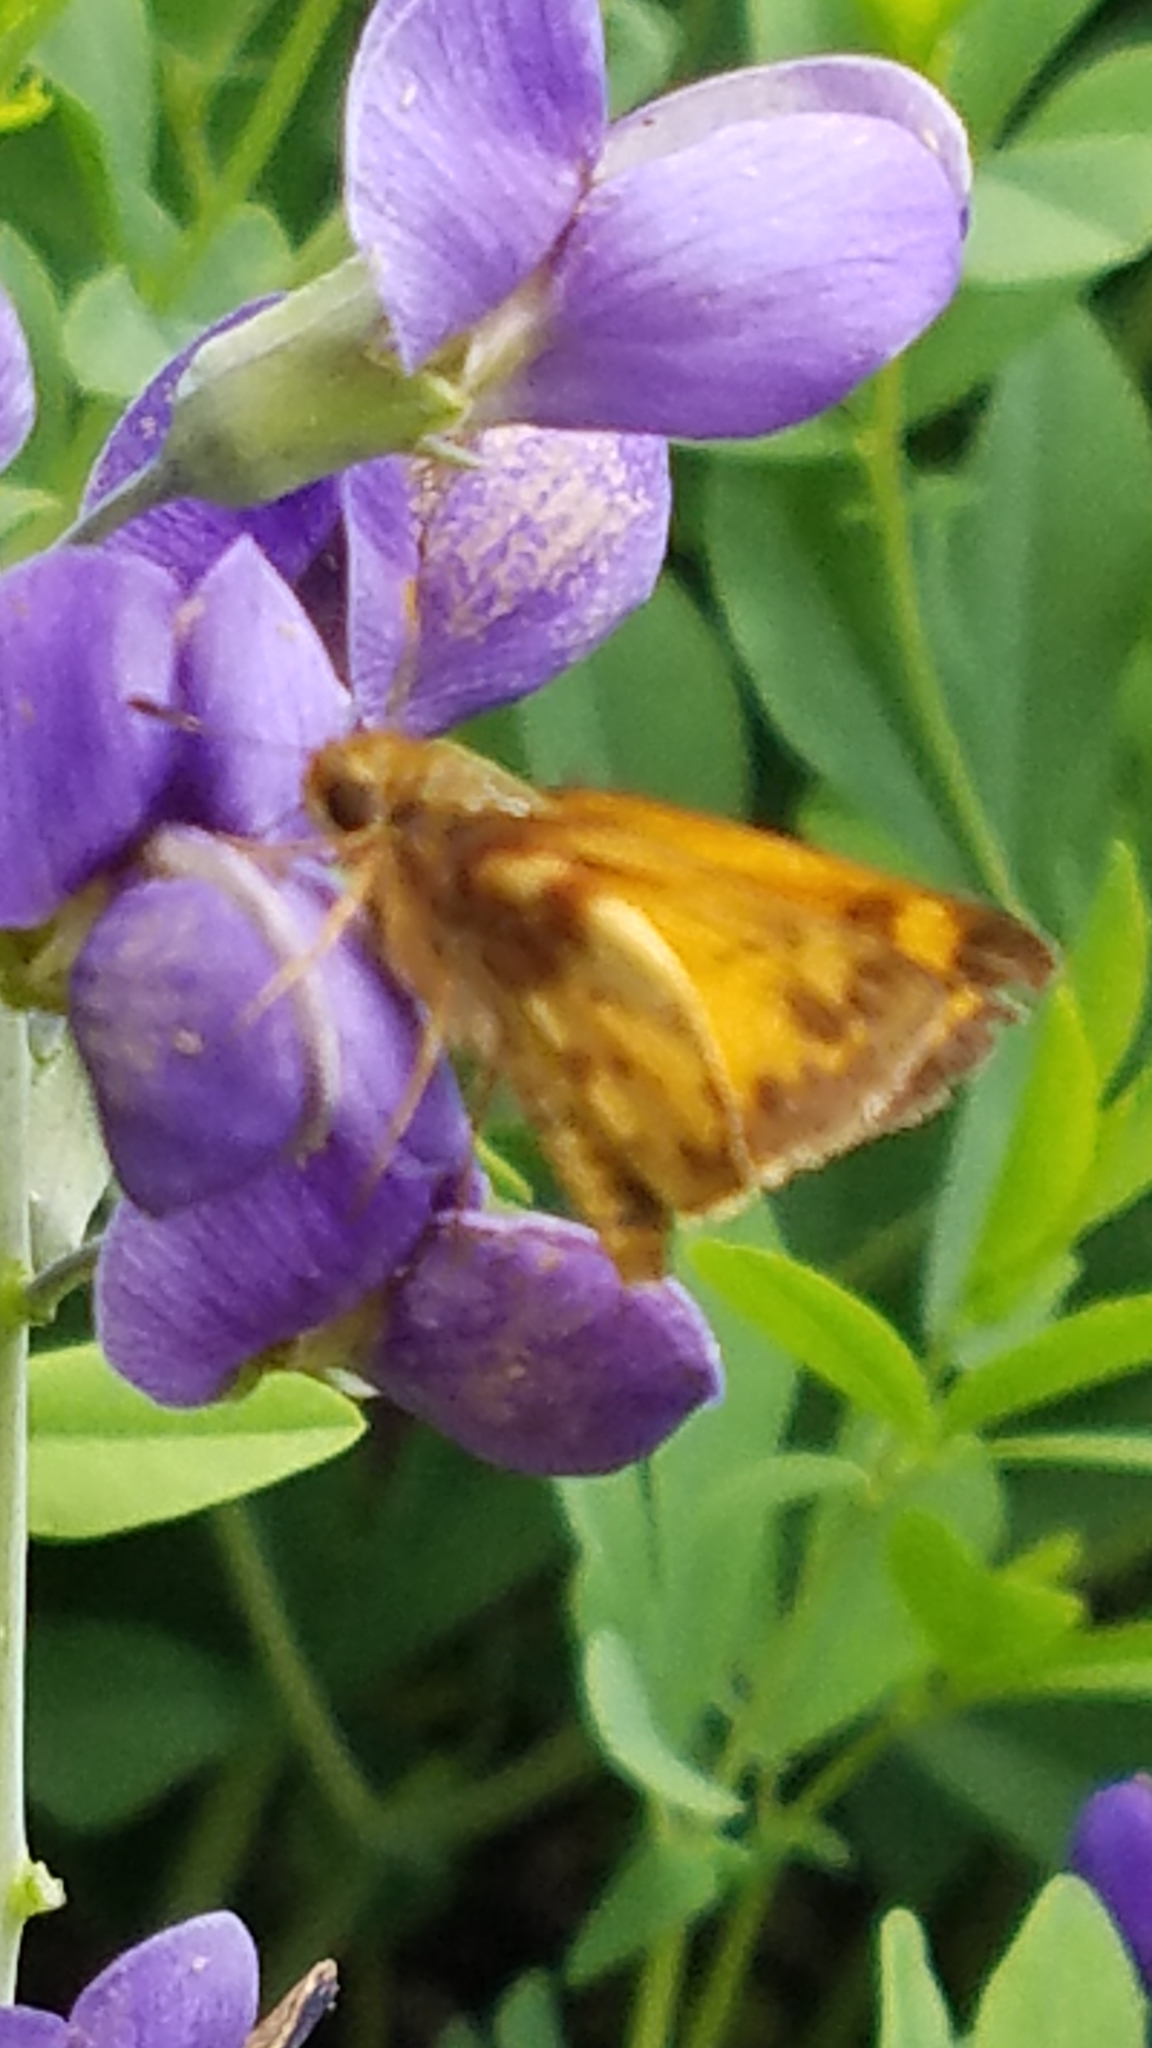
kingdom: Animalia
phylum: Arthropoda
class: Insecta
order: Lepidoptera
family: Hesperiidae
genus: Lon
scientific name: Lon zabulon
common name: Zabulon skipper
